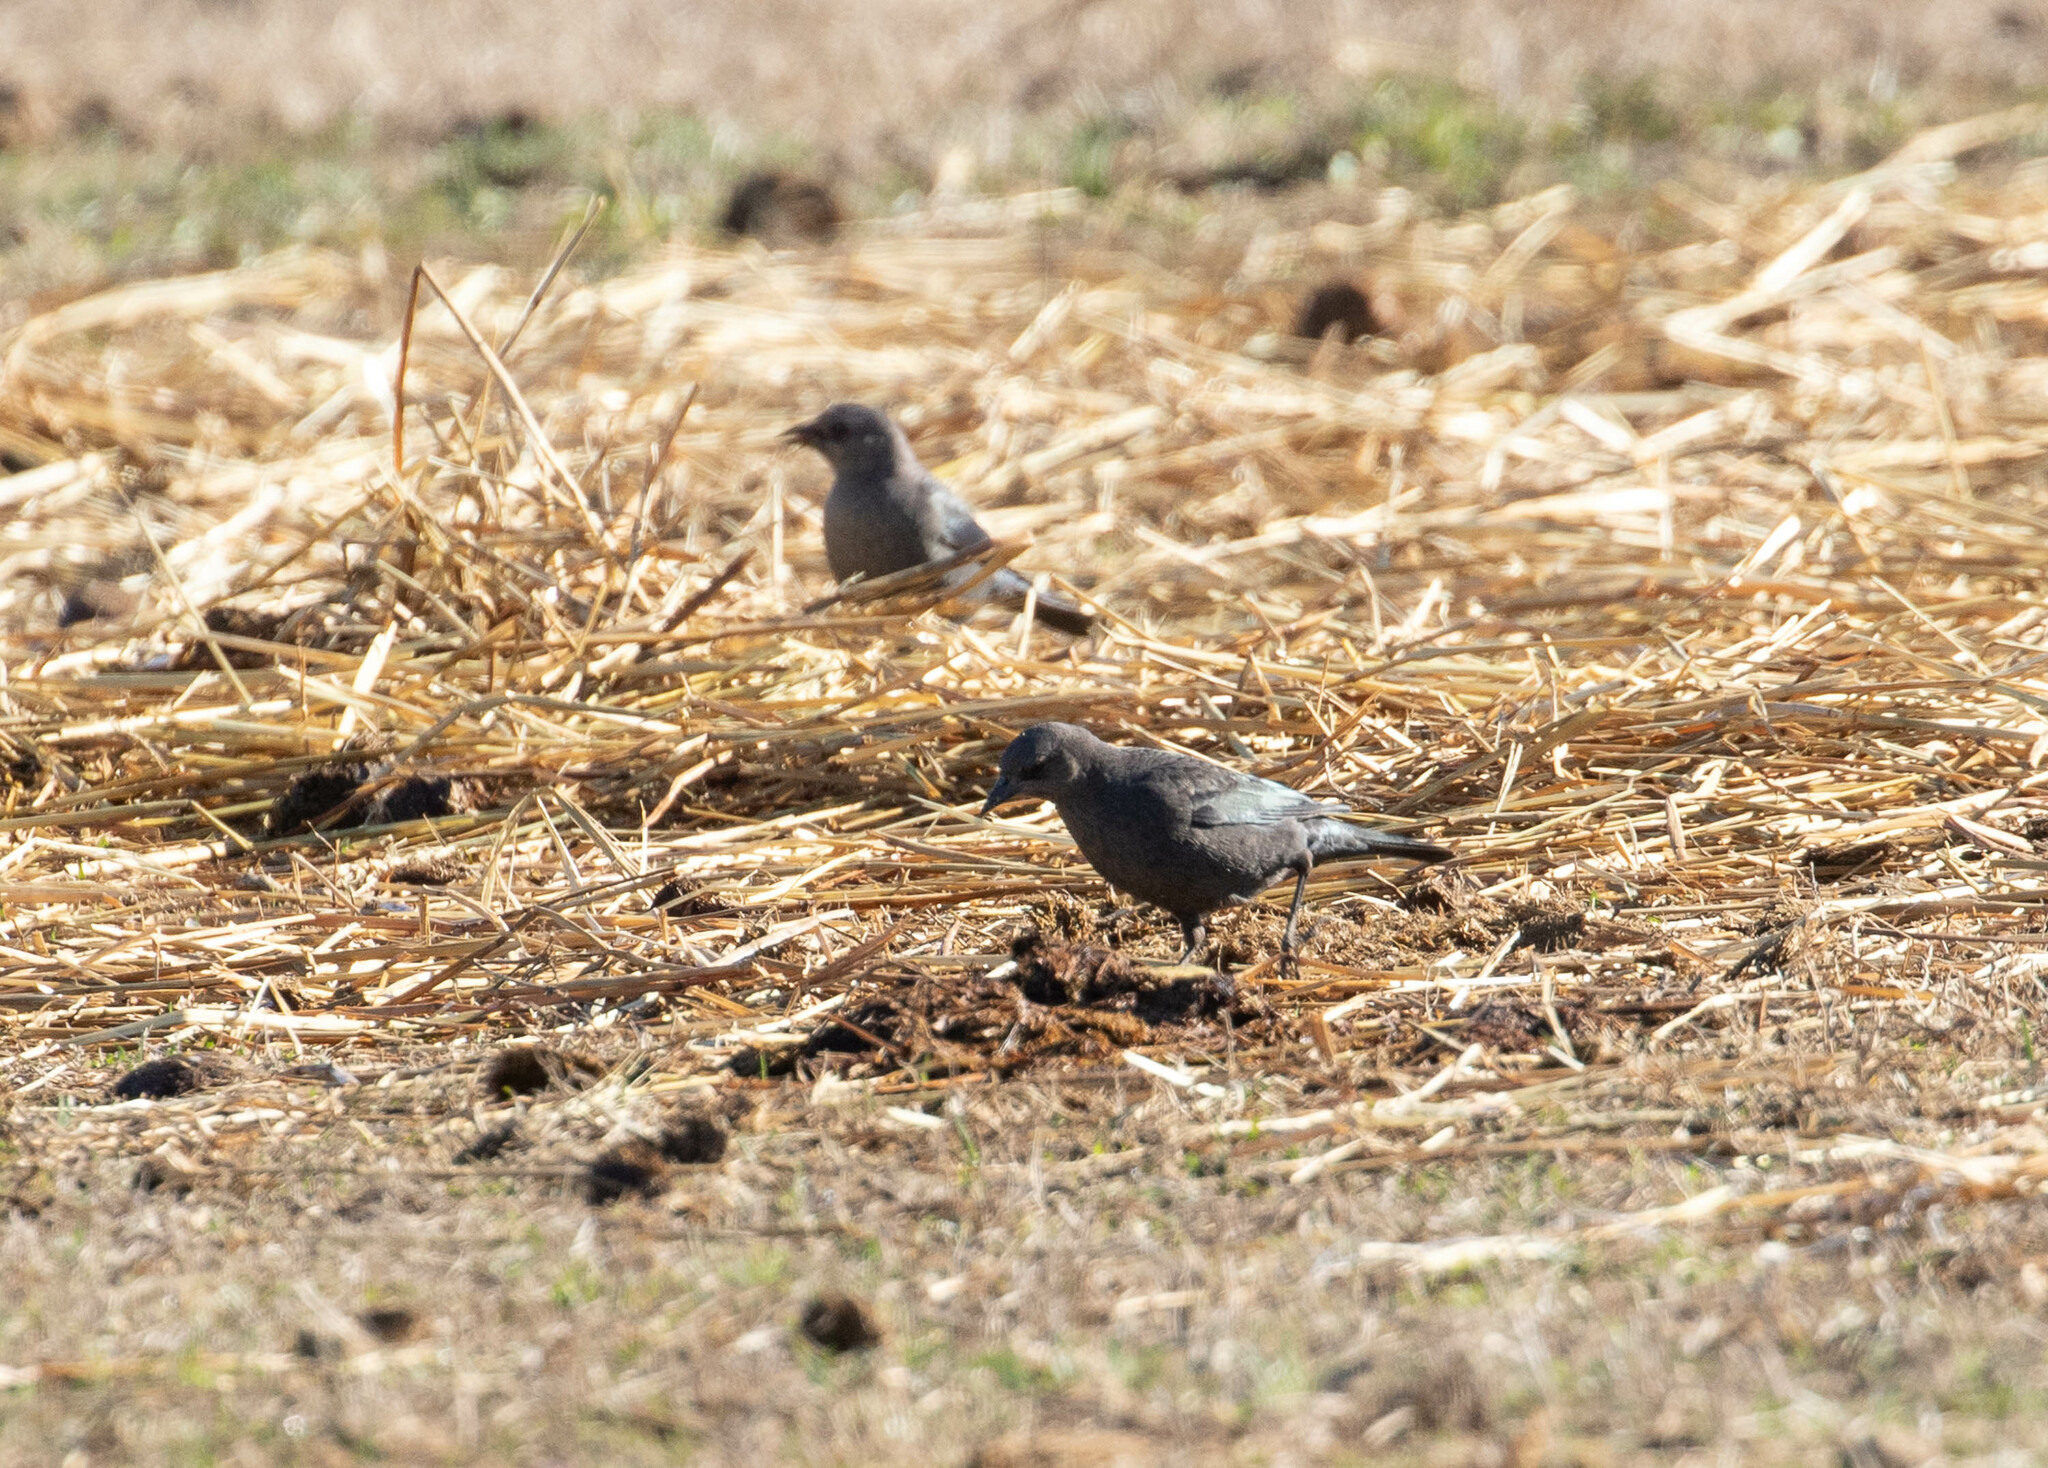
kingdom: Animalia
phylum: Chordata
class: Aves
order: Passeriformes
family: Icteridae
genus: Euphagus
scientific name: Euphagus cyanocephalus
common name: Brewer's blackbird
